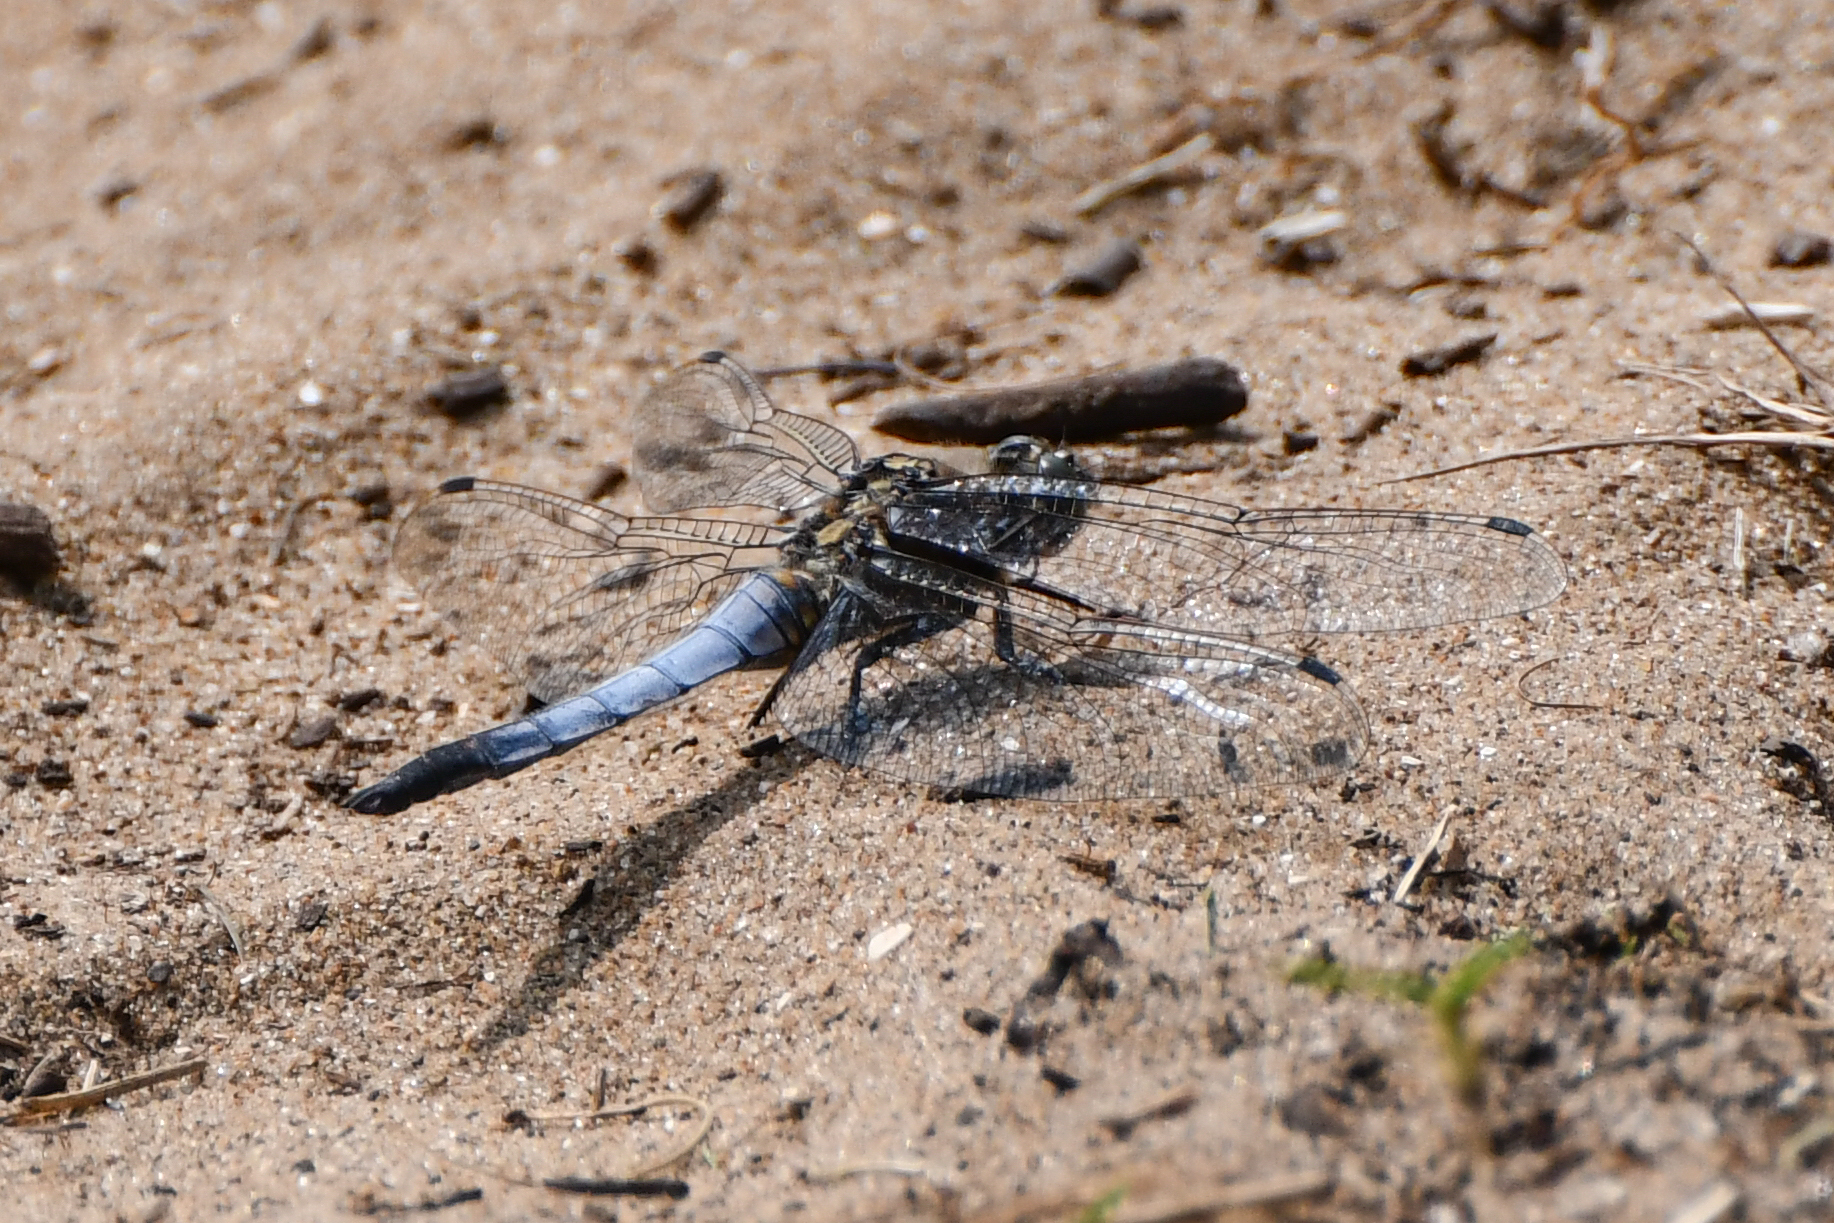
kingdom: Animalia
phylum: Arthropoda
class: Insecta
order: Odonata
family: Libellulidae
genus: Orthetrum
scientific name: Orthetrum cancellatum
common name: Black-tailed skimmer
